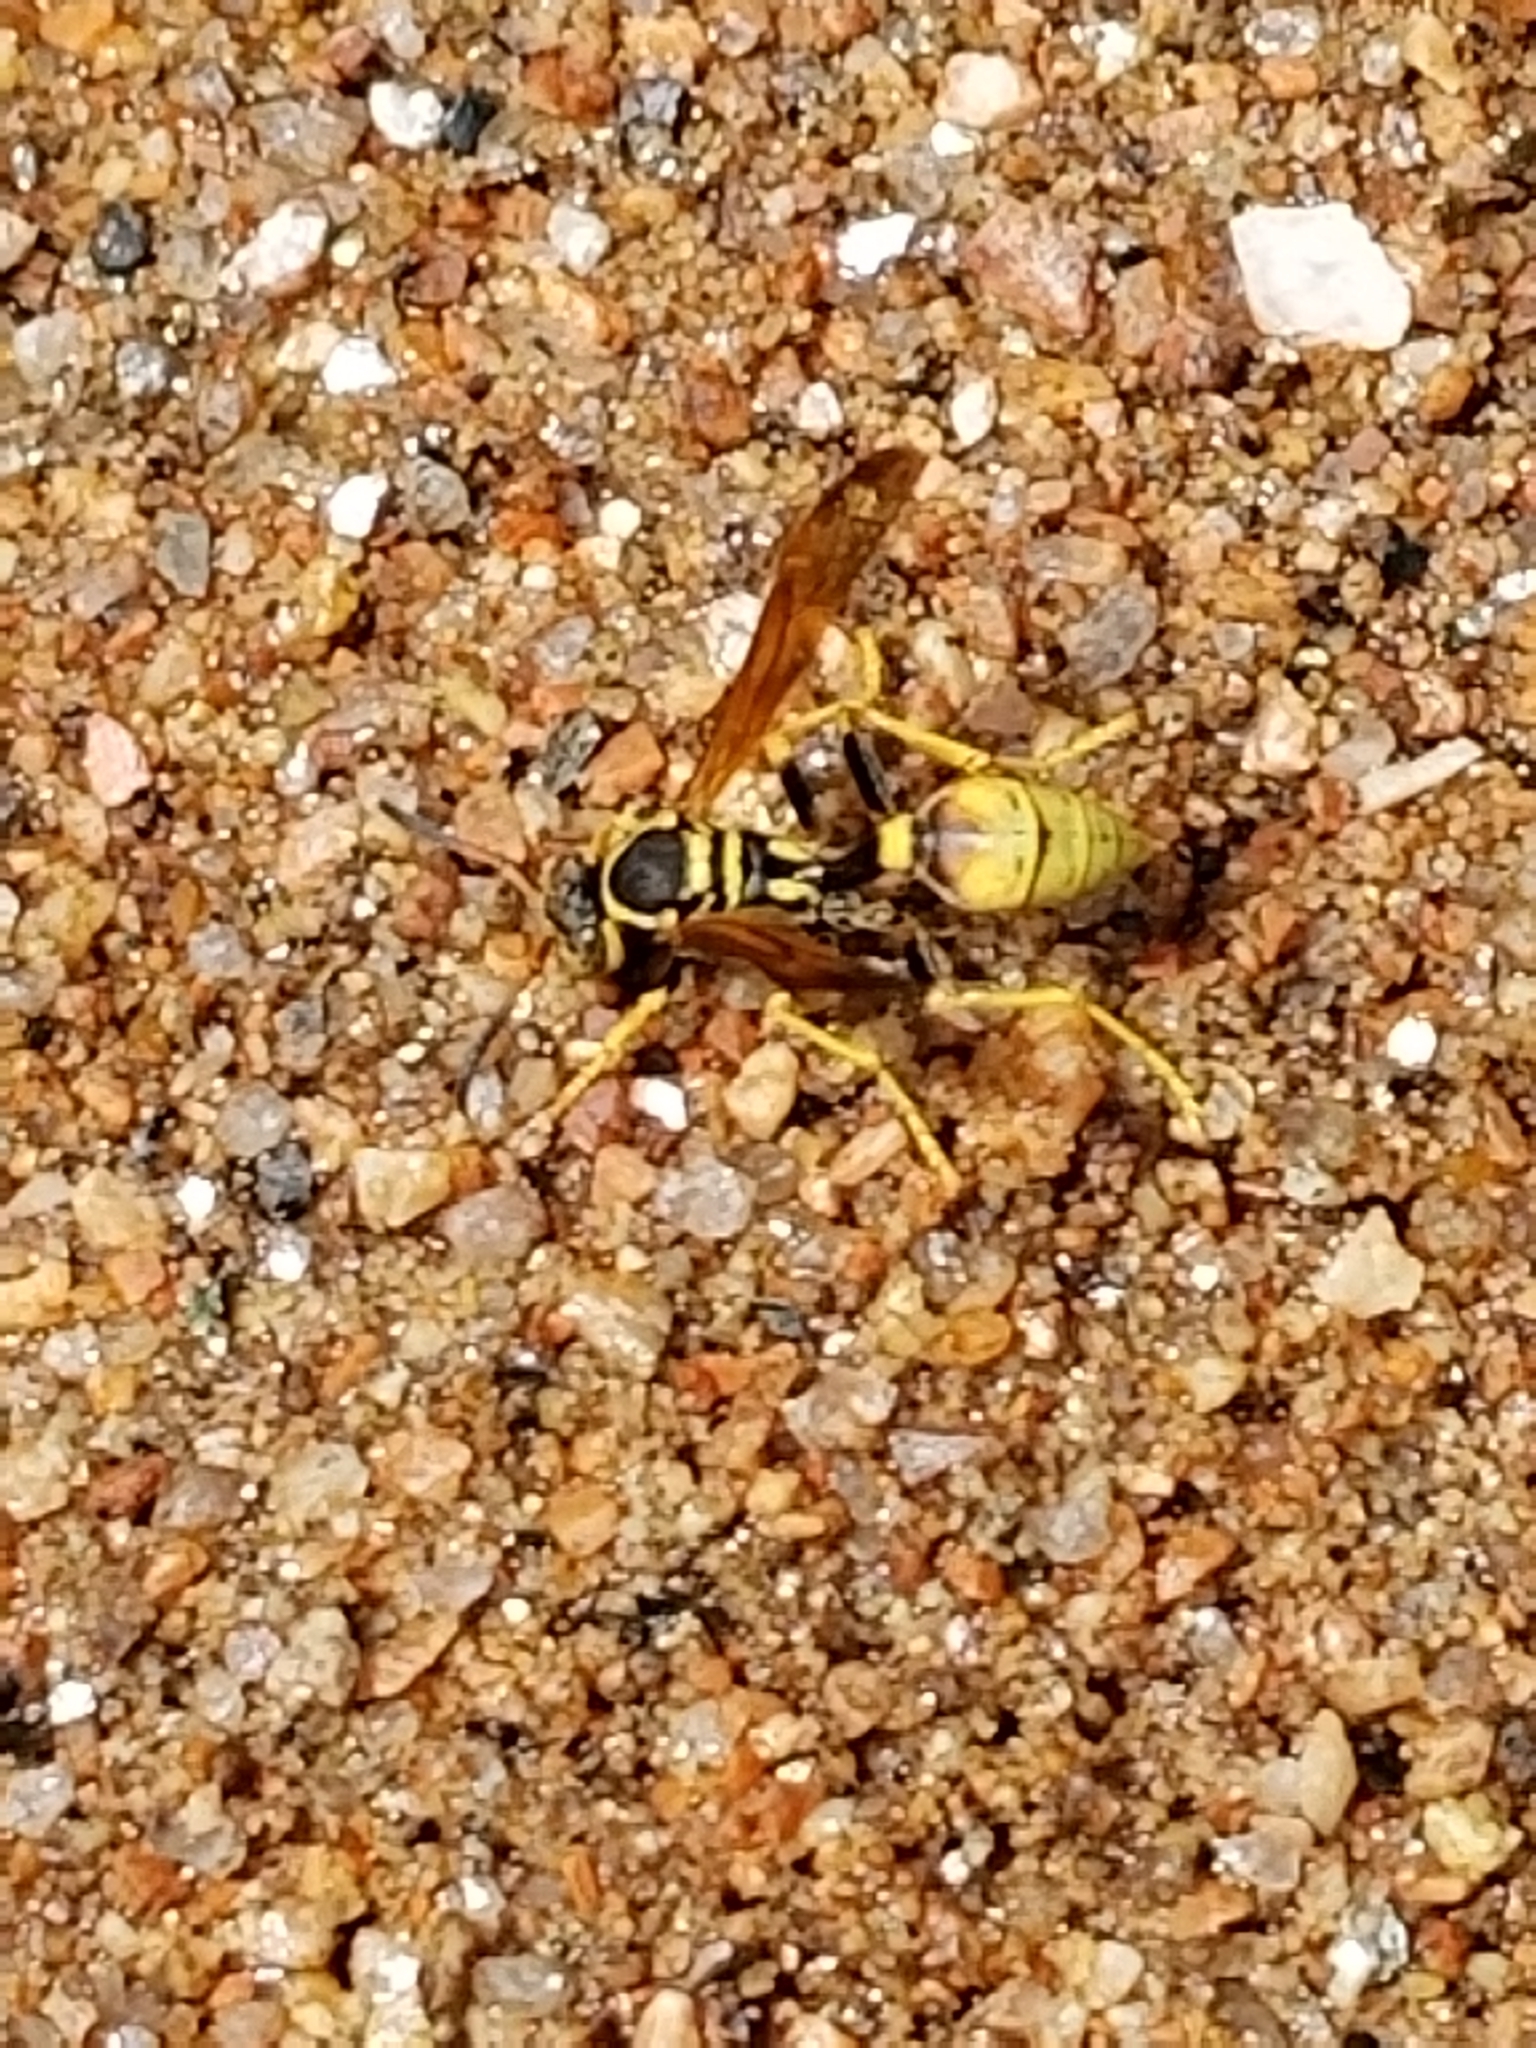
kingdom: Animalia
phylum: Arthropoda
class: Insecta
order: Hymenoptera
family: Vespidae
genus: Mischocyttarus
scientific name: Mischocyttarus flavitarsis
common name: Wasp
